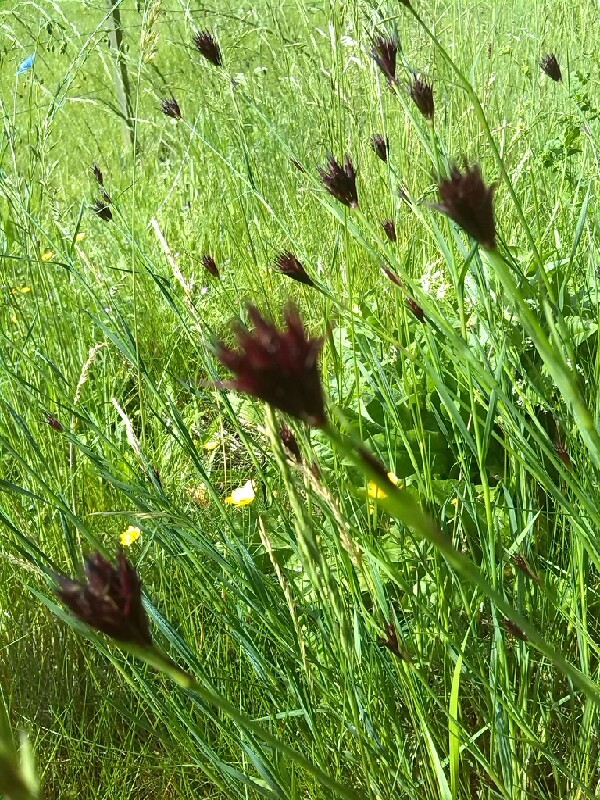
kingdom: Plantae
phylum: Tracheophyta
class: Magnoliopsida
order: Caryophyllales
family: Caryophyllaceae
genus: Dianthus
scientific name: Dianthus carthusianorum
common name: Carthusian pink
